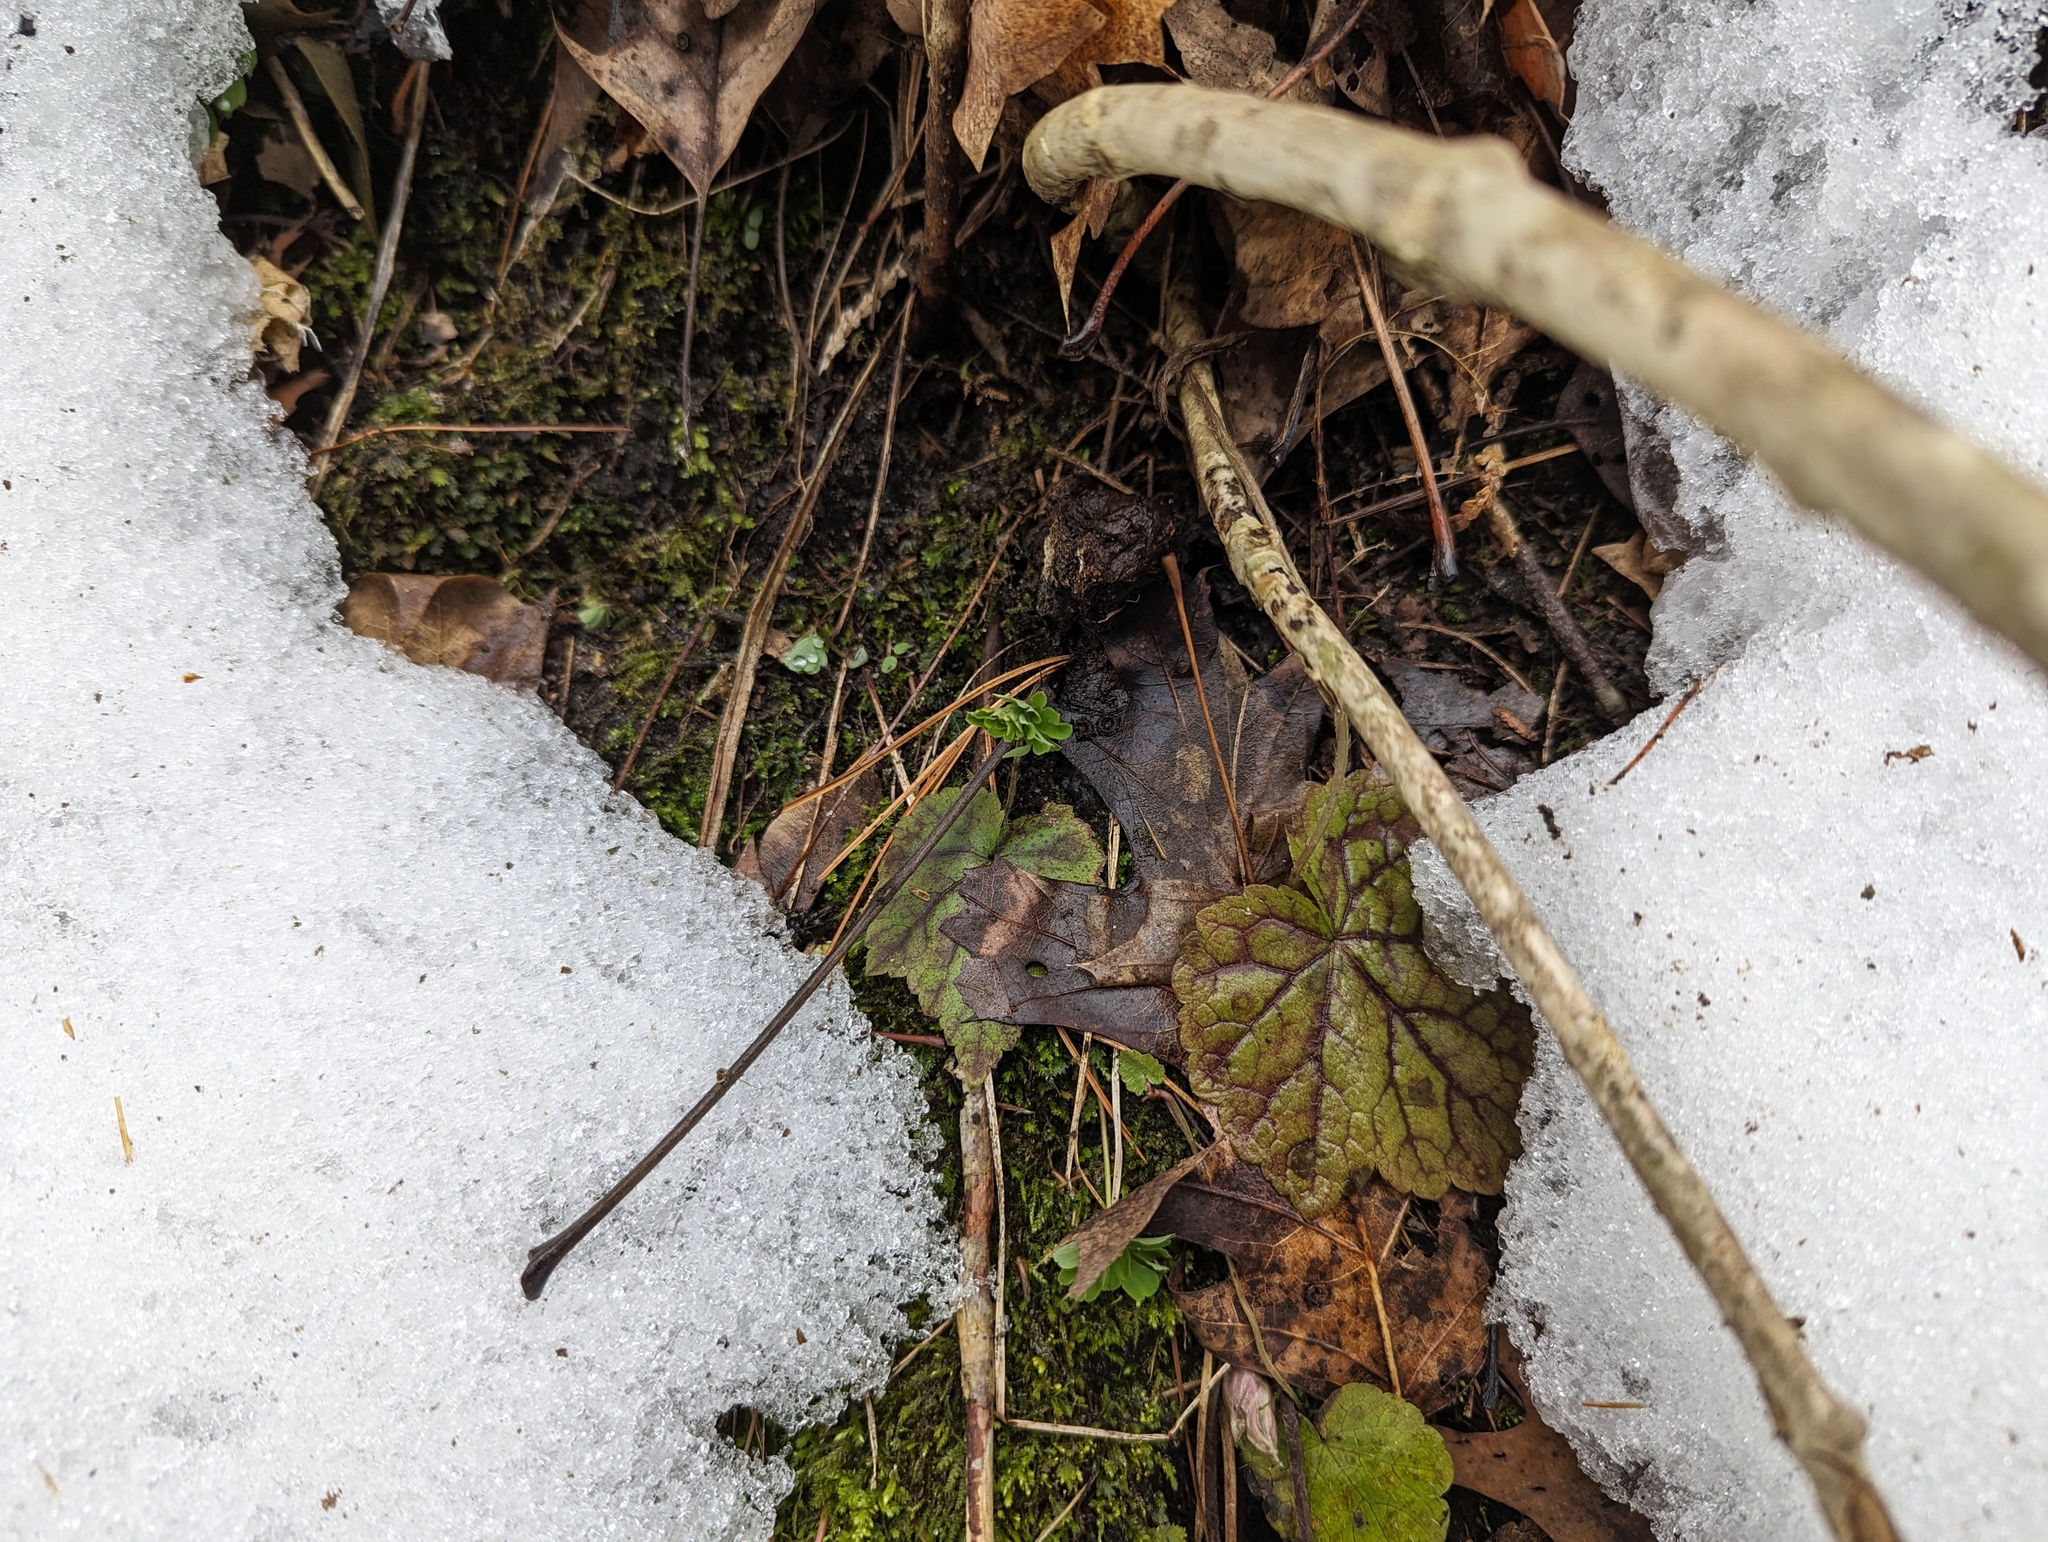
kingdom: Plantae
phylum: Tracheophyta
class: Magnoliopsida
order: Saxifragales
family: Saxifragaceae
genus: Mitella
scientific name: Mitella diphylla
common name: Coolwort
